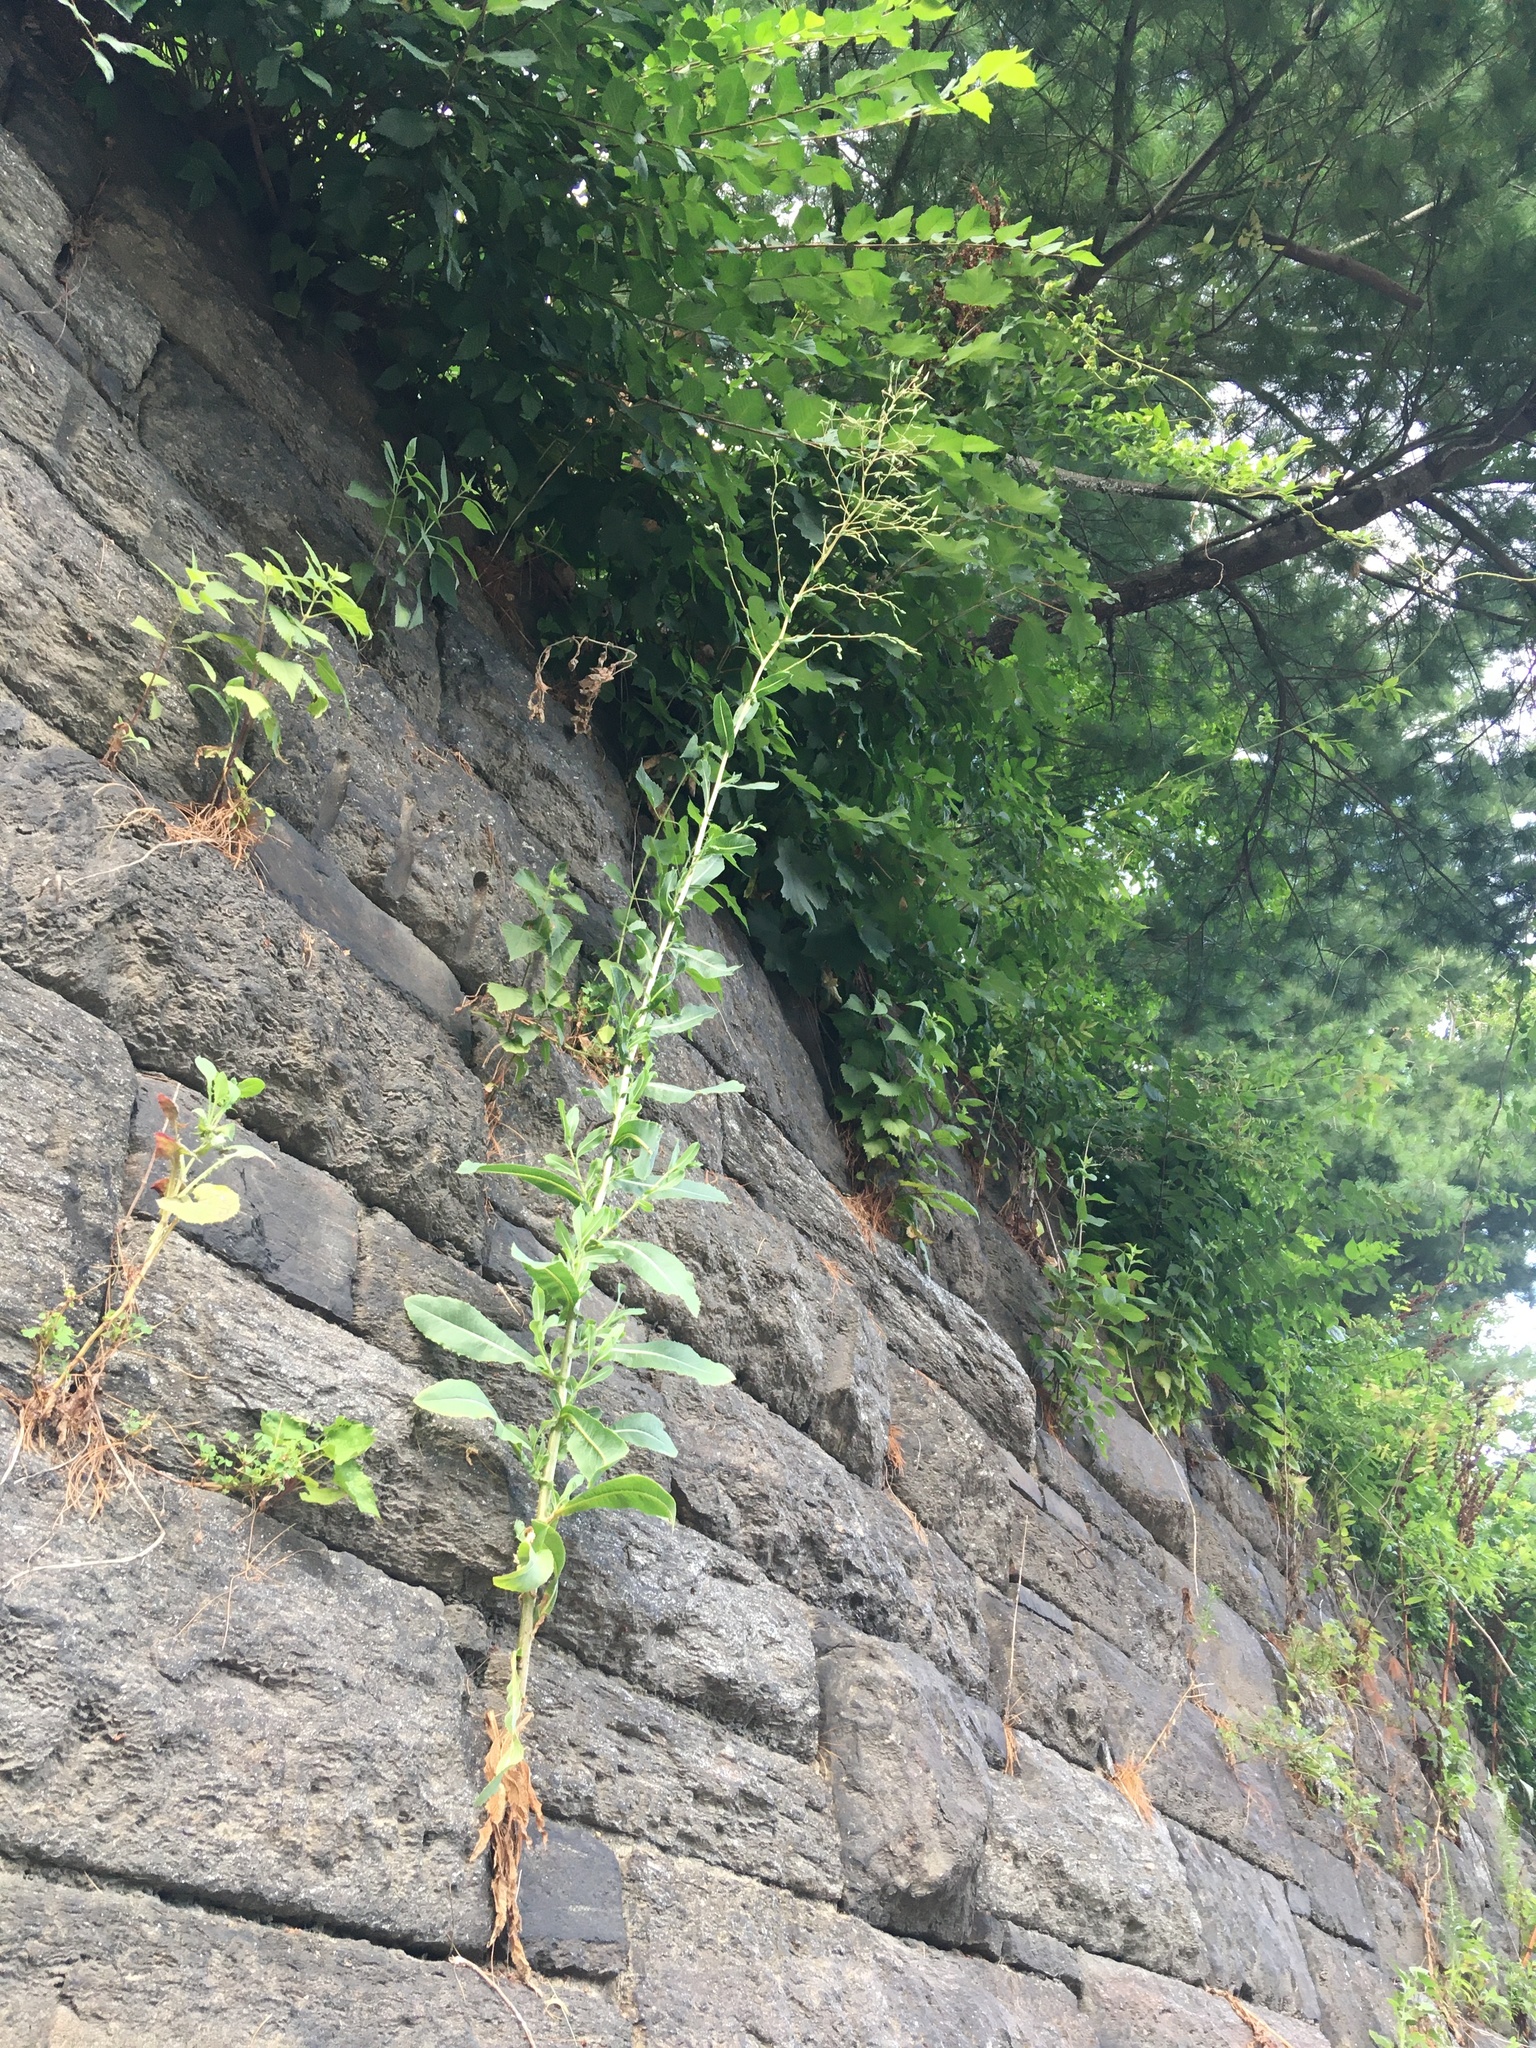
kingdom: Plantae
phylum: Tracheophyta
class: Magnoliopsida
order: Asterales
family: Asteraceae
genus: Lactuca
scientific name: Lactuca serriola
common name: Prickly lettuce
